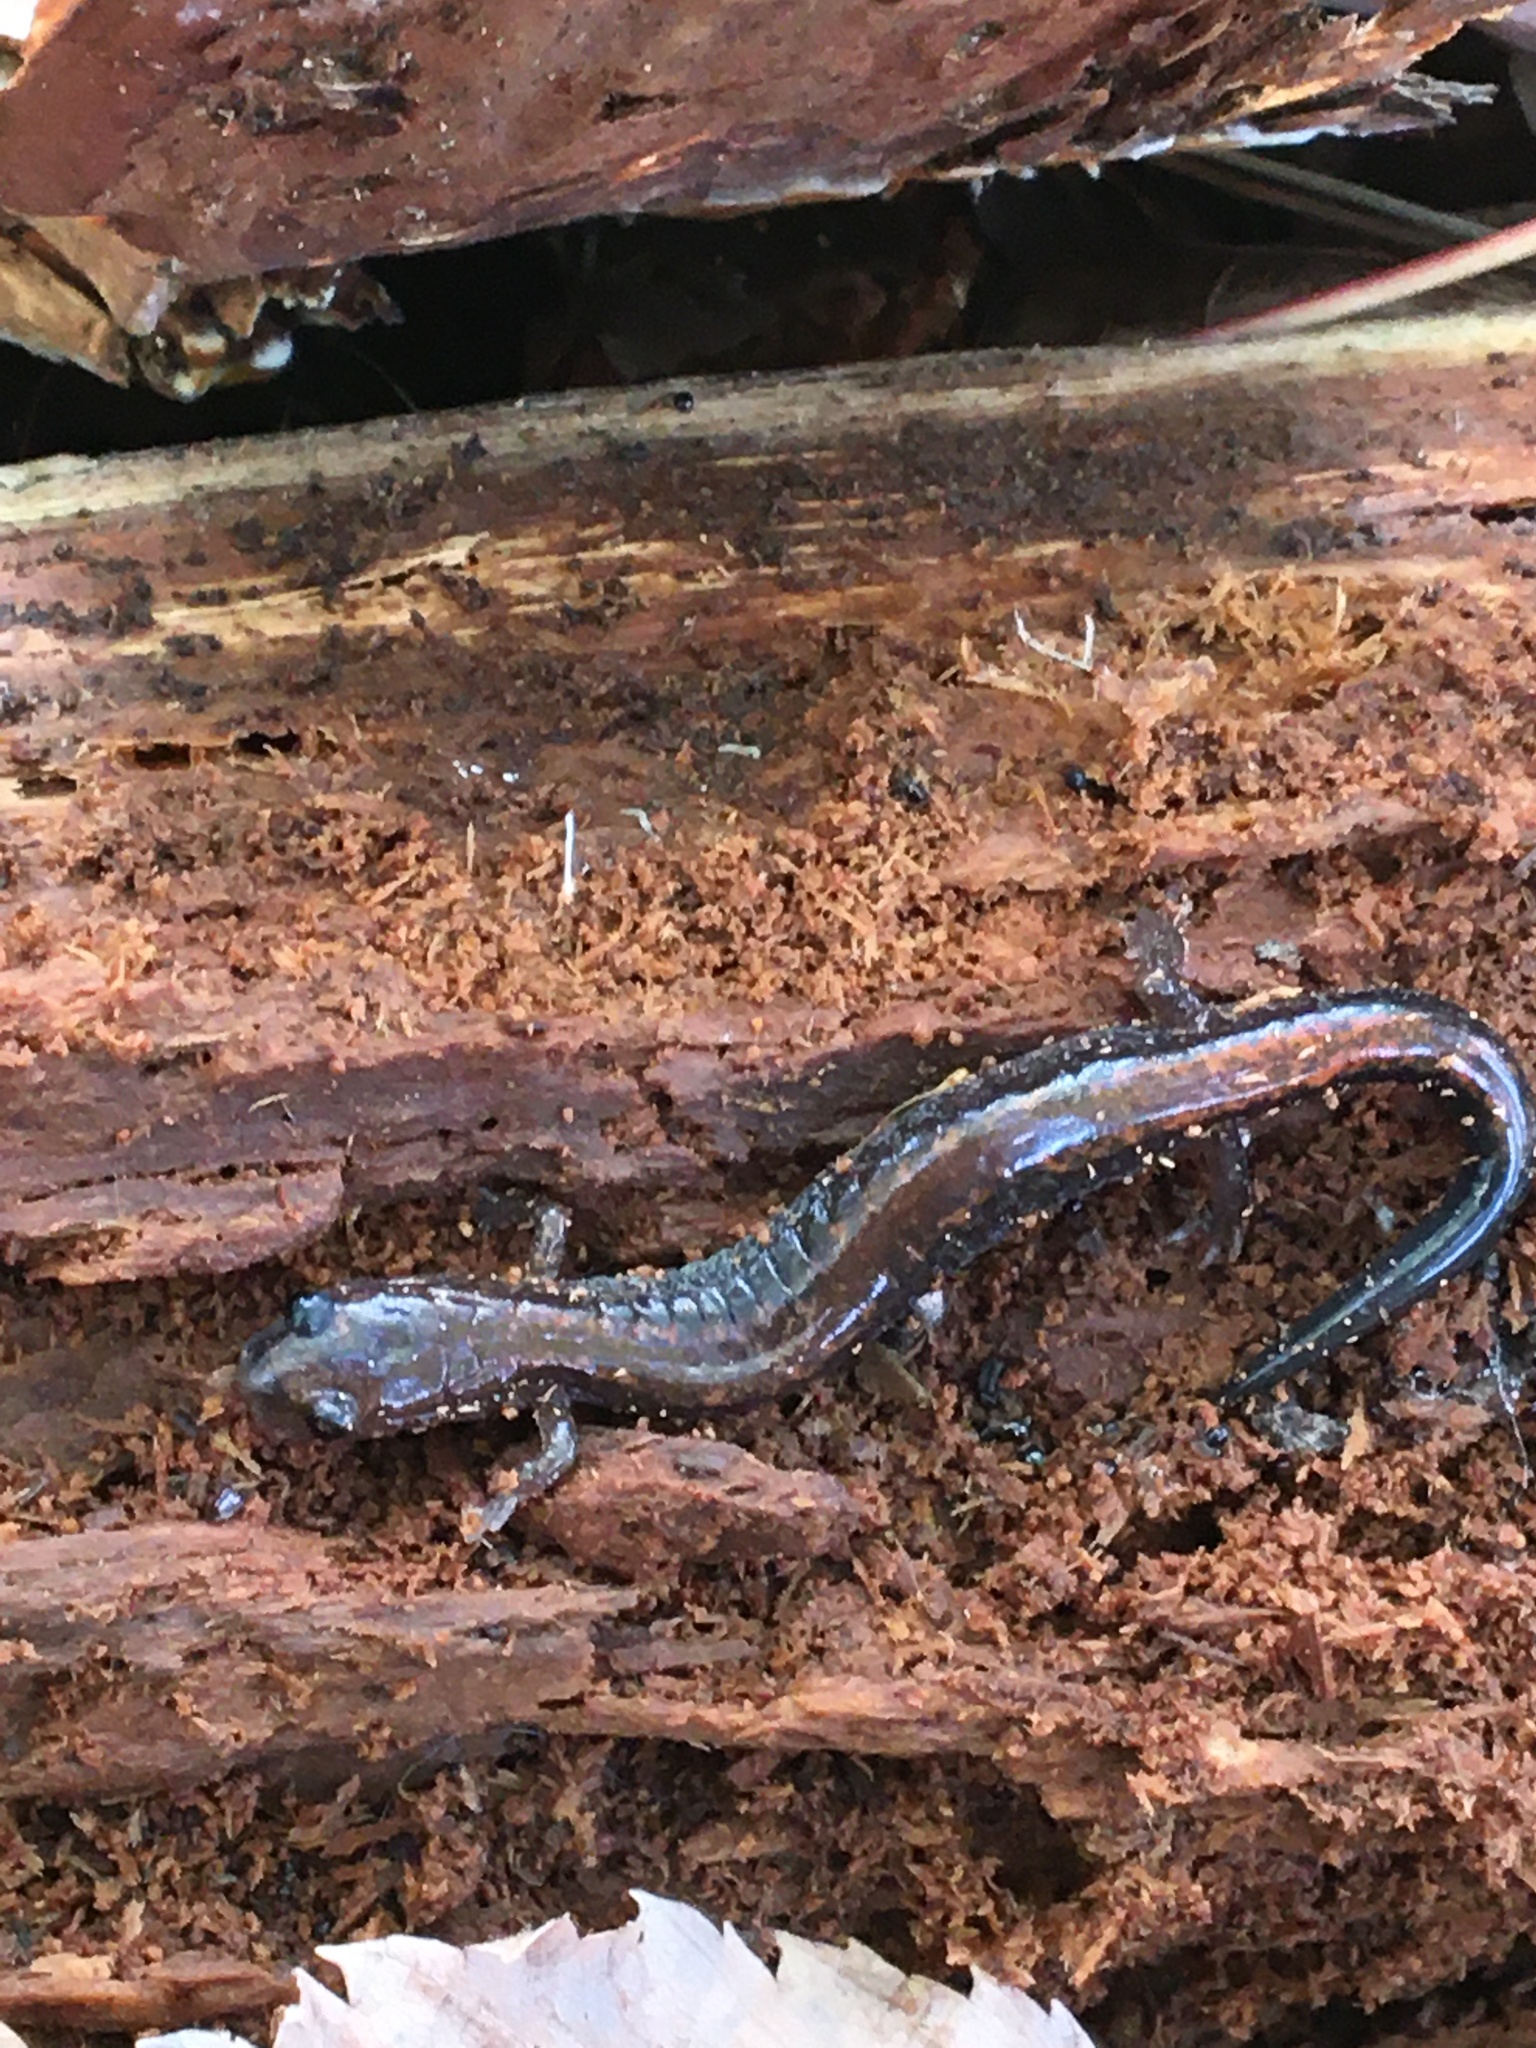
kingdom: Animalia
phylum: Chordata
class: Amphibia
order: Caudata
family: Plethodontidae
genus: Plethodon
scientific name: Plethodon cinereus
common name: Redback salamander
